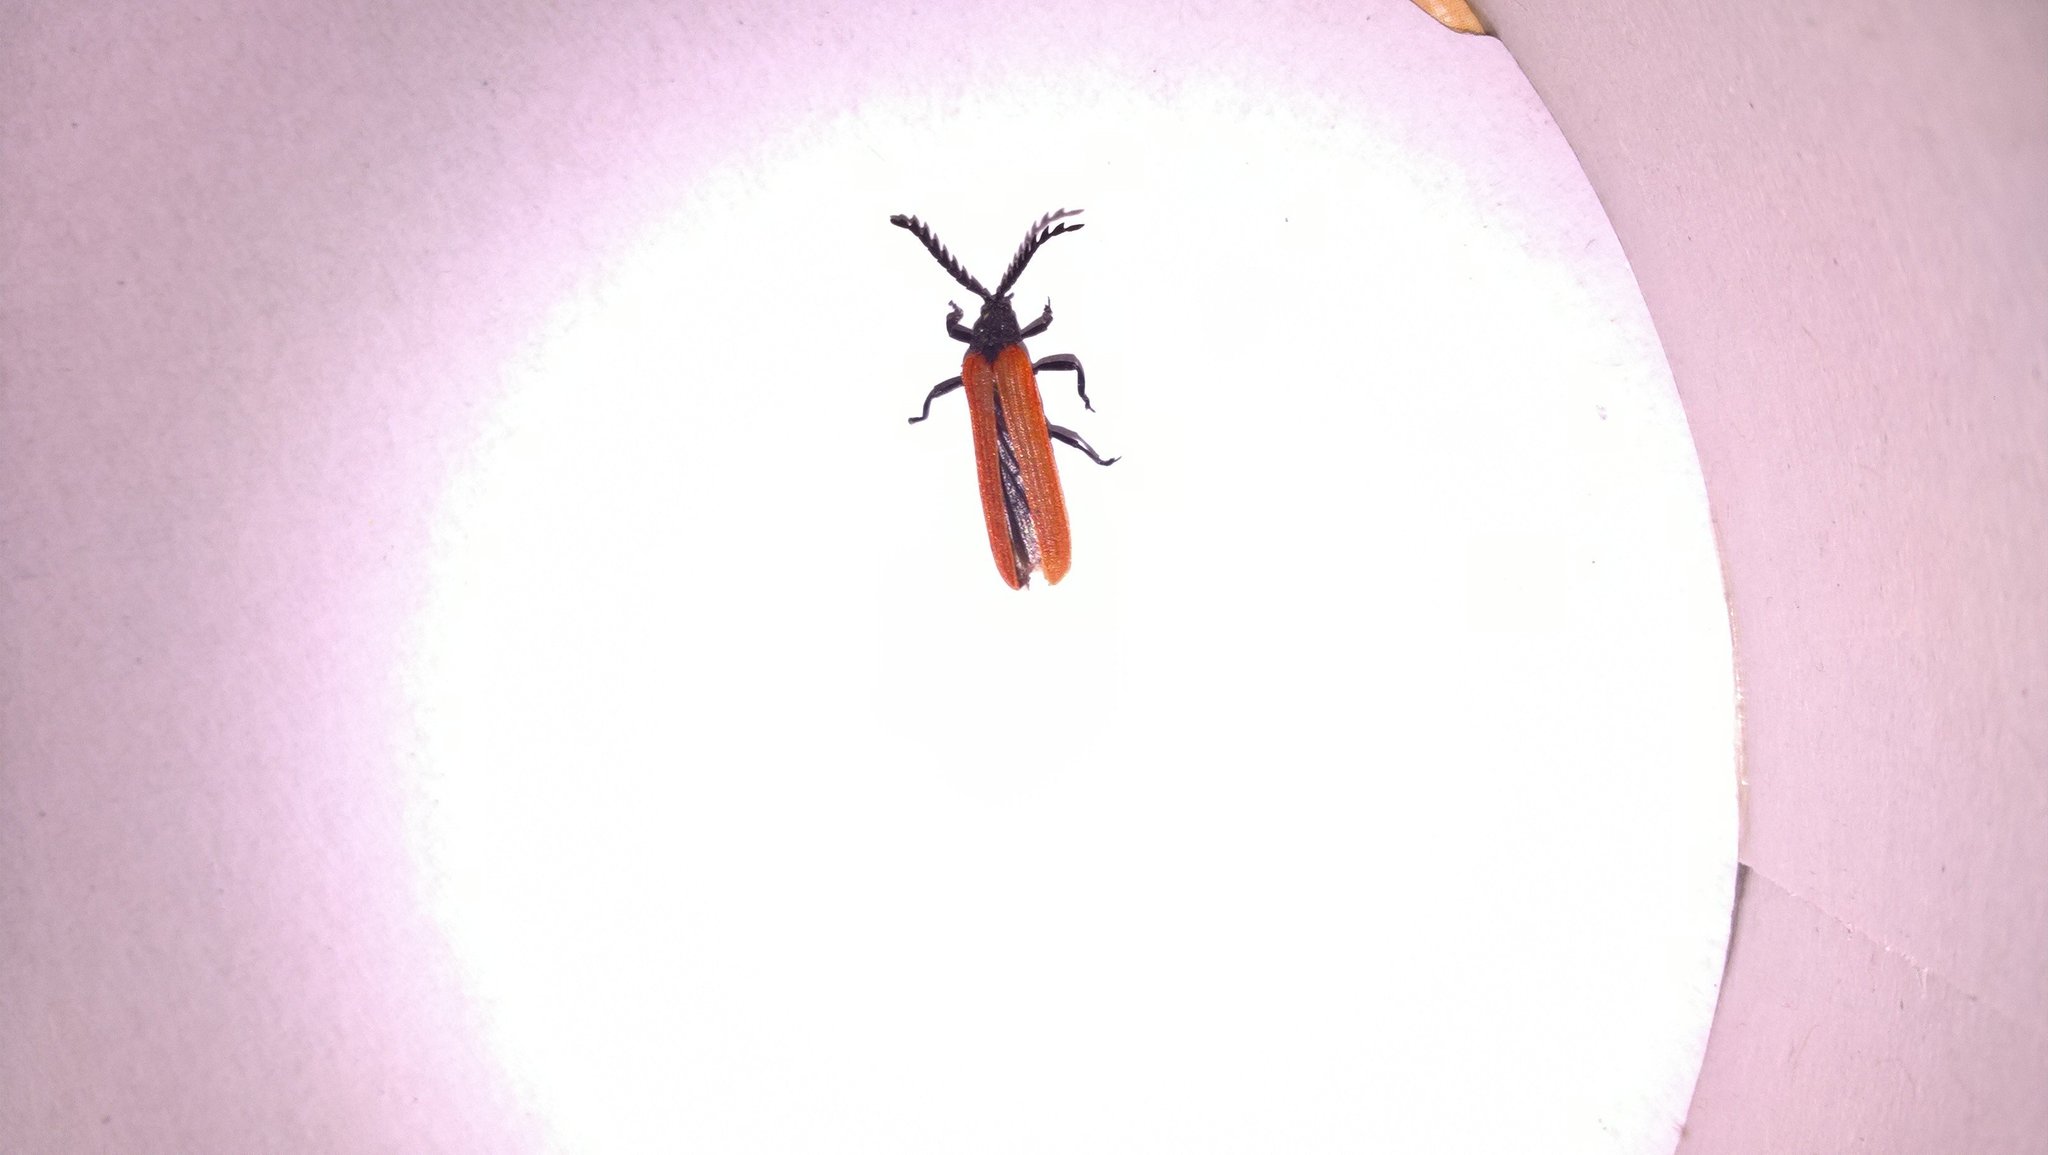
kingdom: Animalia
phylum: Arthropoda
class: Insecta
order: Coleoptera
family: Lycidae
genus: Porrostoma
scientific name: Porrostoma rufipenne
